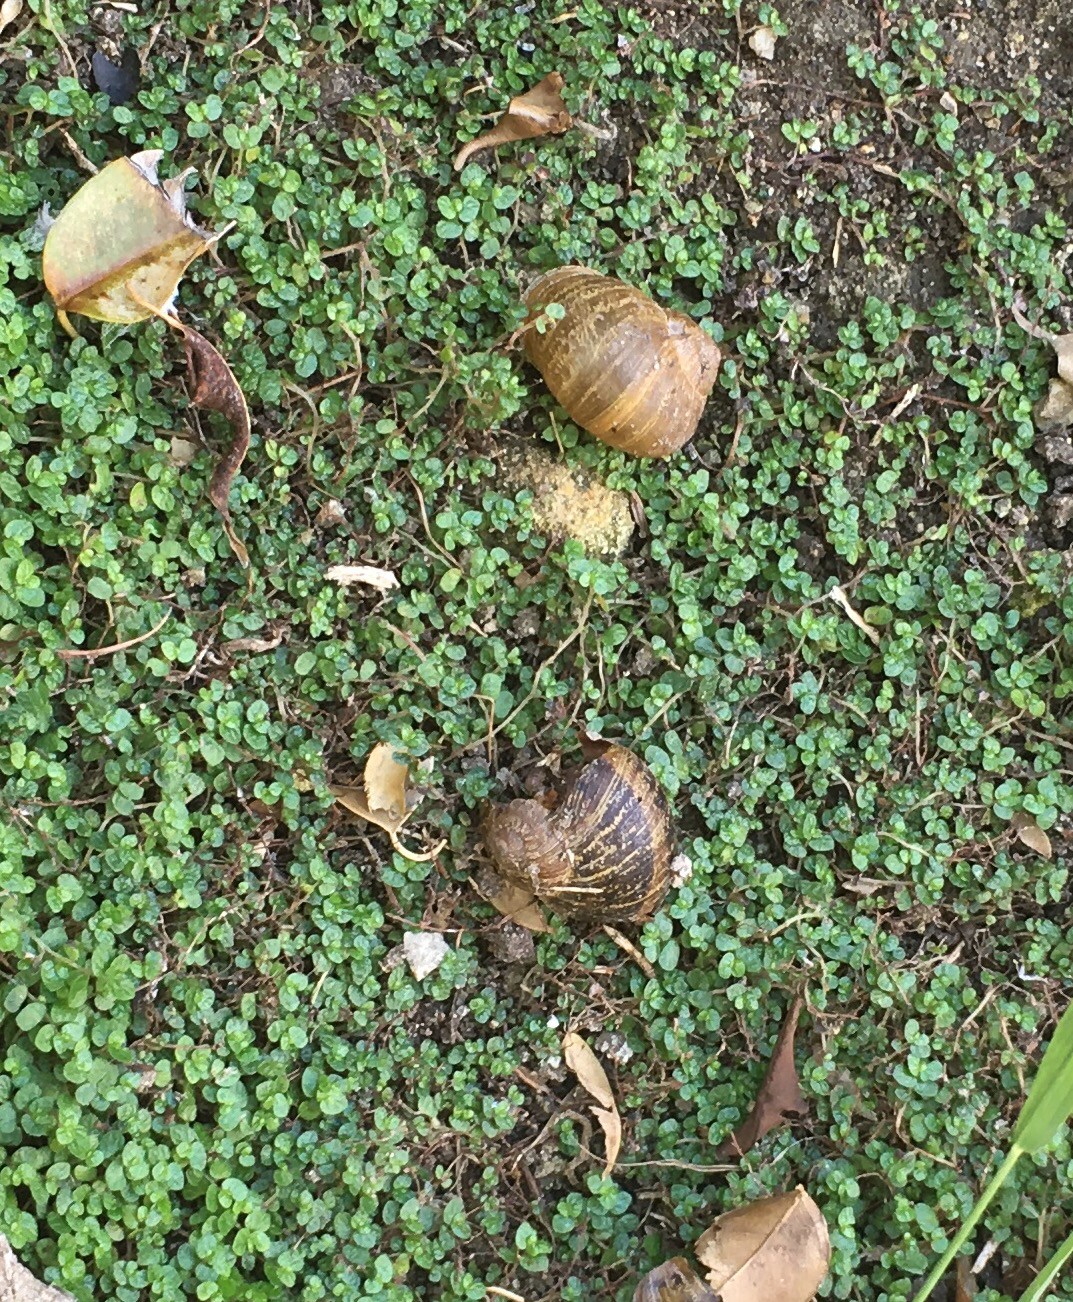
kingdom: Animalia
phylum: Mollusca
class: Gastropoda
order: Stylommatophora
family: Helicidae
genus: Cornu
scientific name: Cornu aspersum
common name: Brown garden snail
